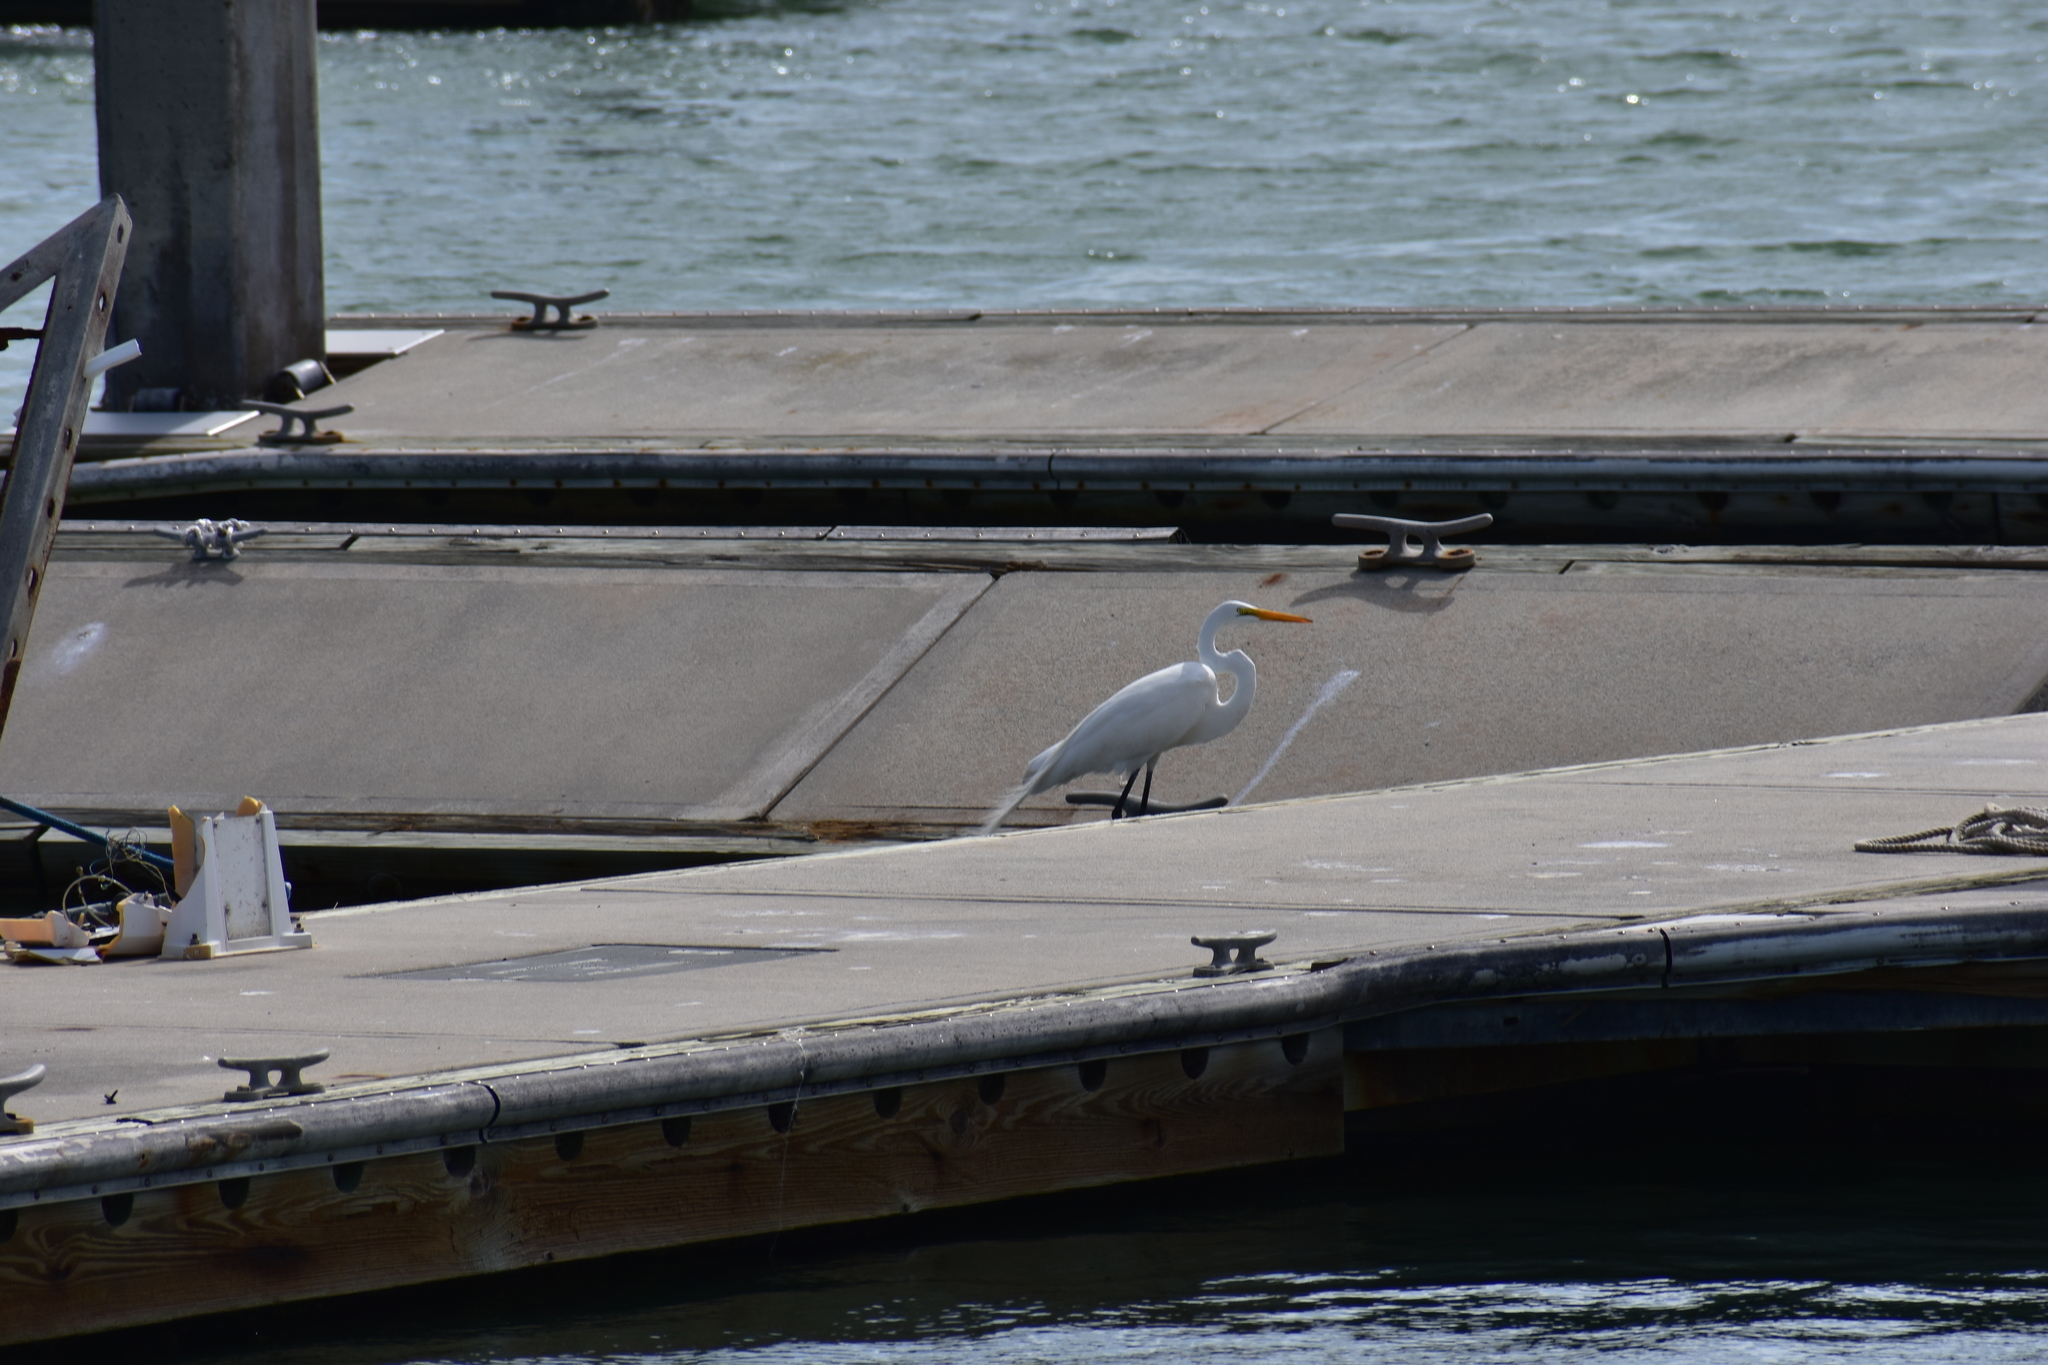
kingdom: Animalia
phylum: Chordata
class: Aves
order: Pelecaniformes
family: Ardeidae
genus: Ardea
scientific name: Ardea alba
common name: Great egret
